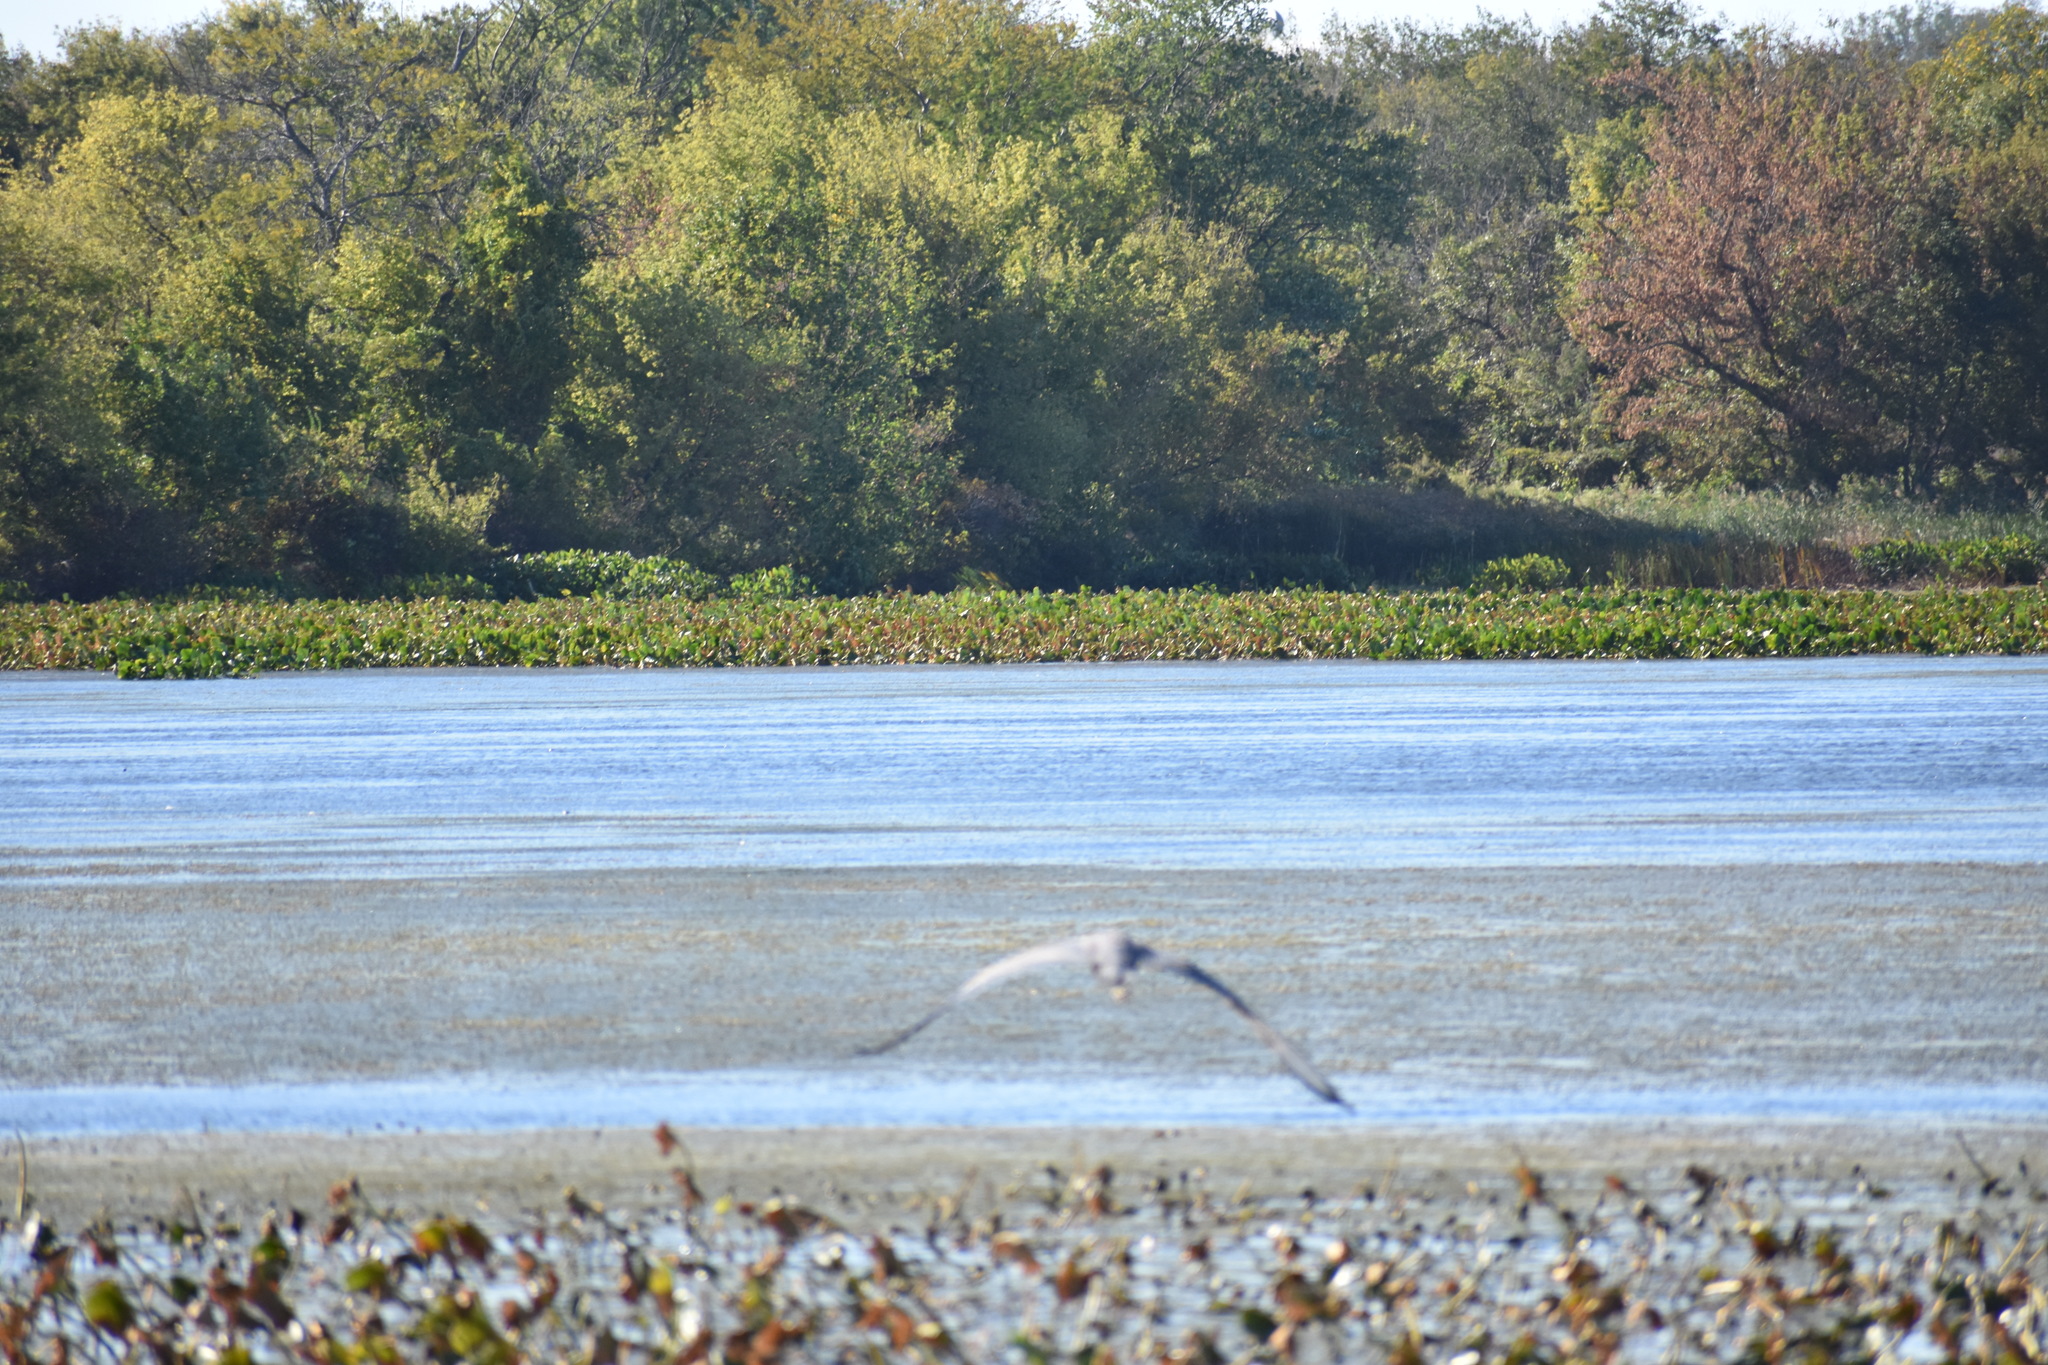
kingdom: Animalia
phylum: Chordata
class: Aves
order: Pelecaniformes
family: Ardeidae
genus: Ardea
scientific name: Ardea herodias
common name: Great blue heron
